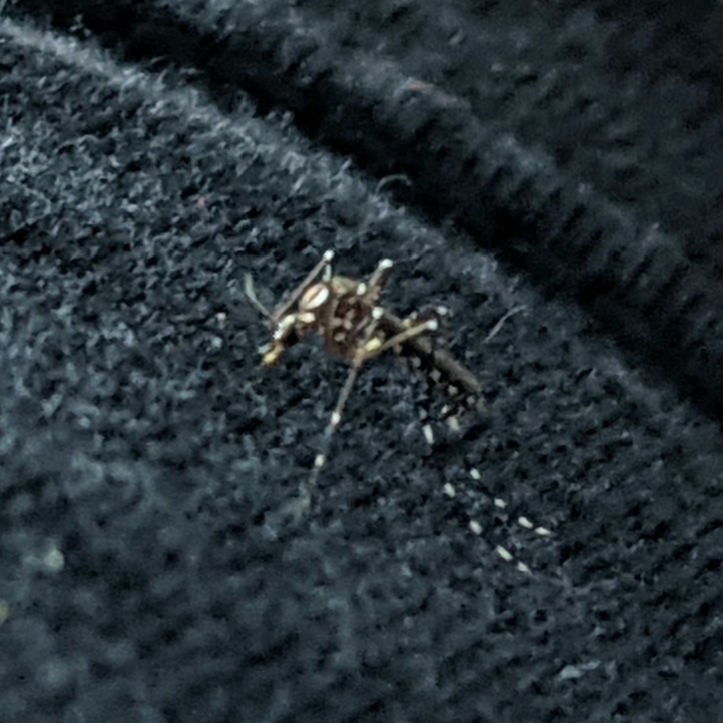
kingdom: Animalia
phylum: Arthropoda
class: Insecta
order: Diptera
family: Culicidae
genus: Aedes
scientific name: Aedes aegypti
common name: Yellow fever mosquito
